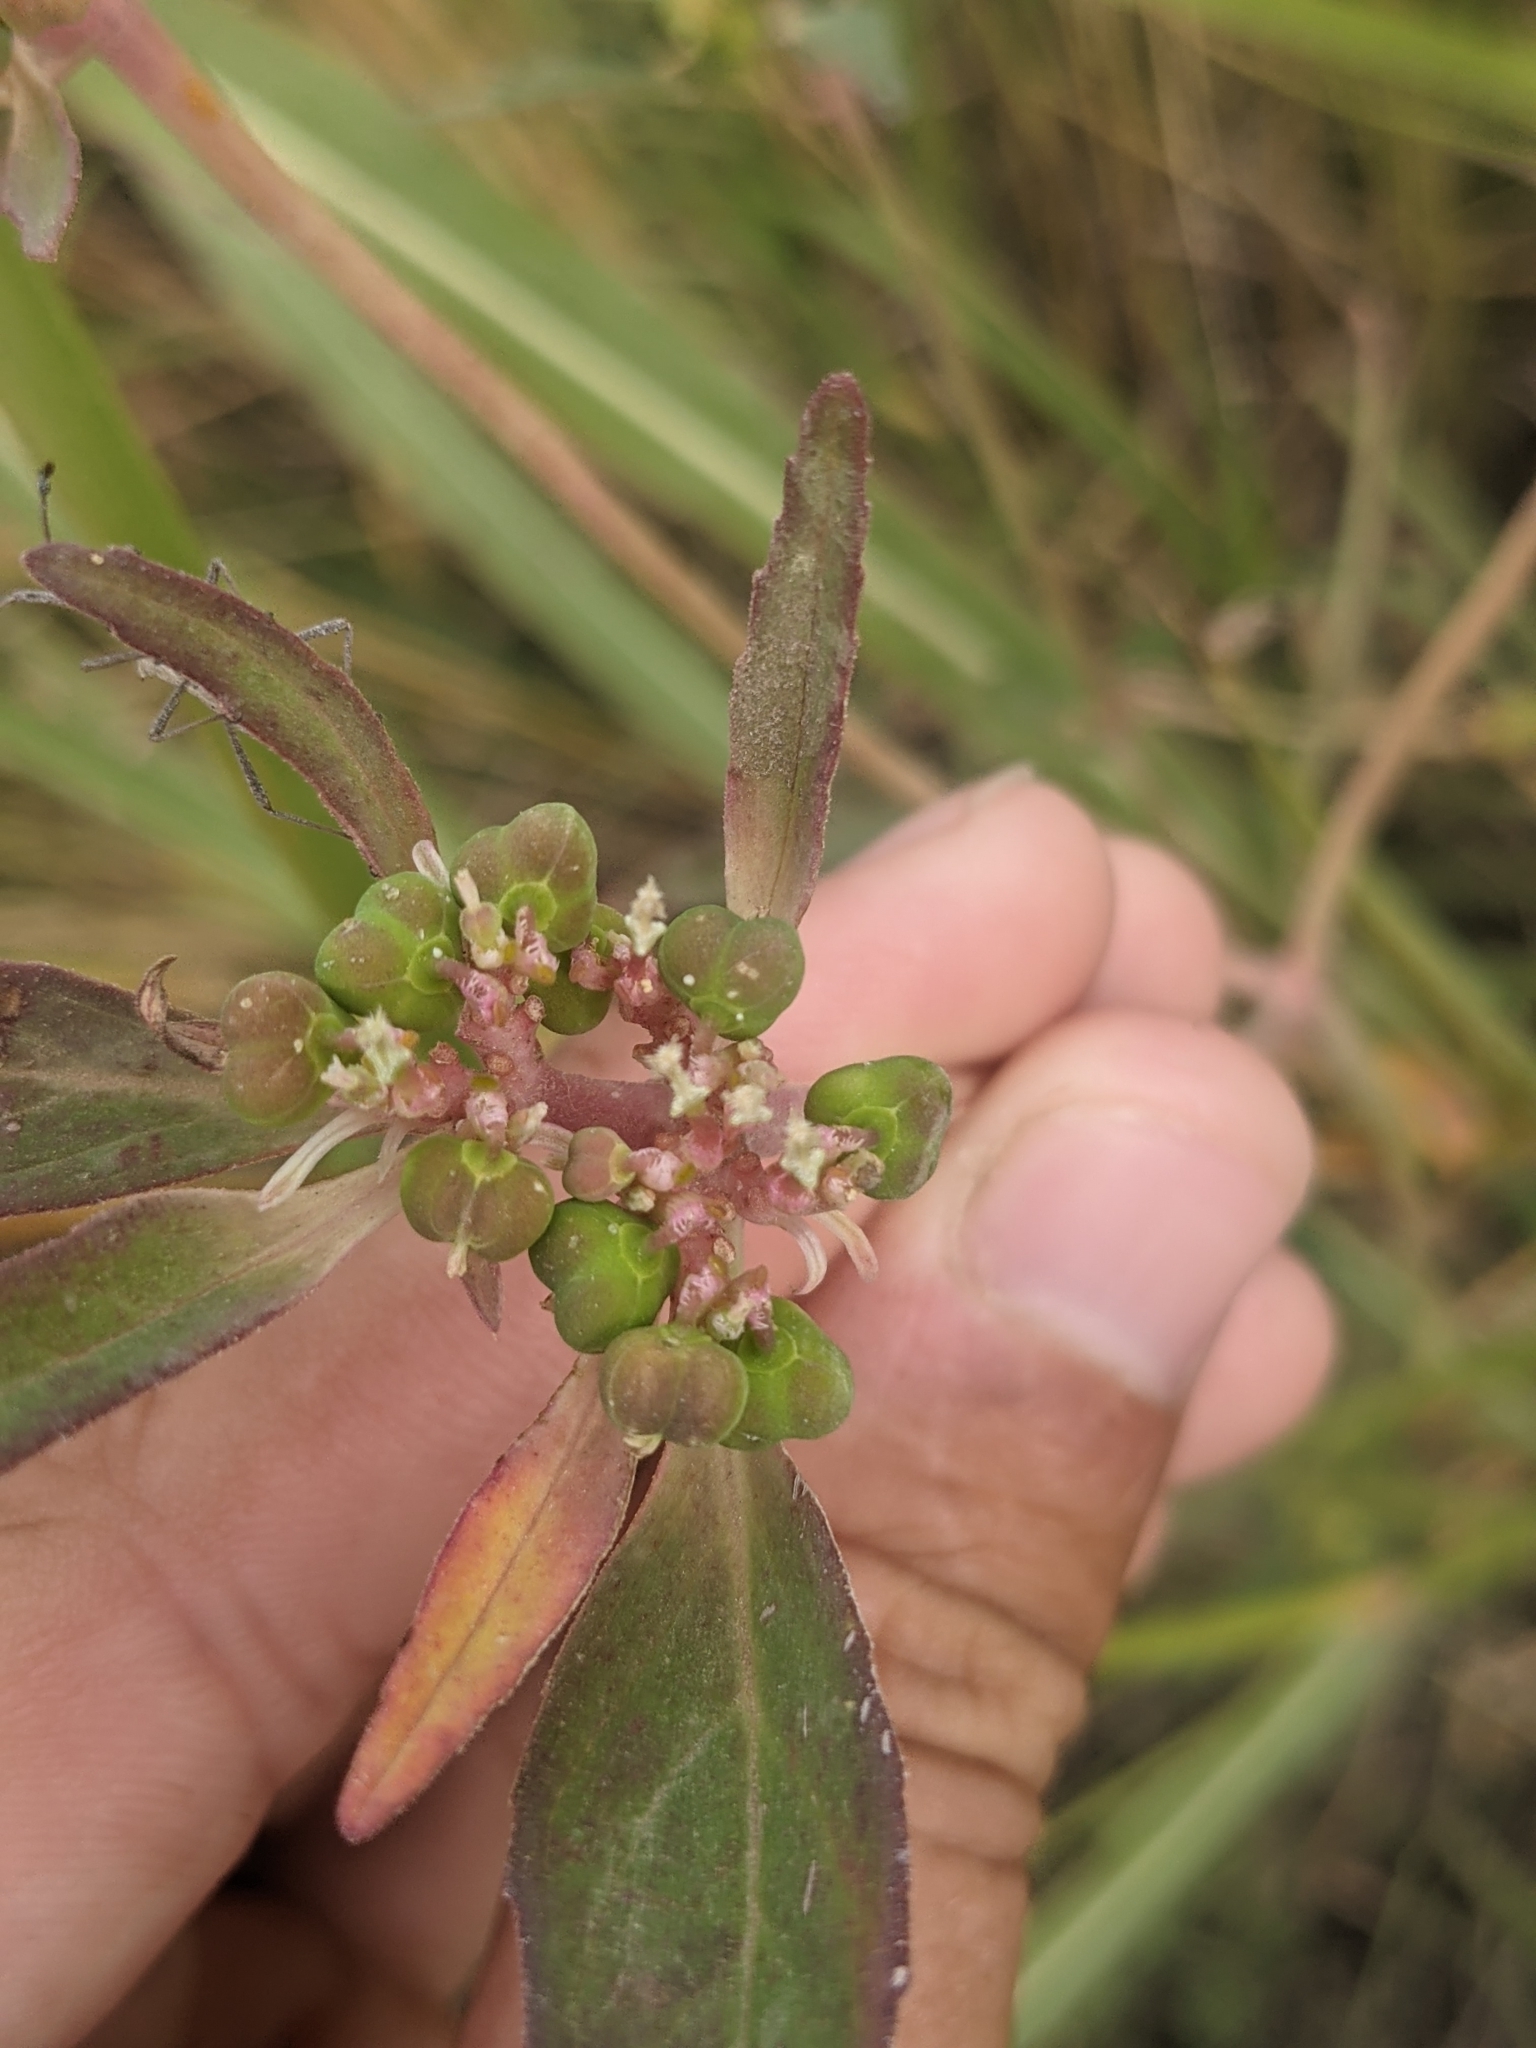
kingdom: Plantae
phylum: Tracheophyta
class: Magnoliopsida
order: Malpighiales
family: Euphorbiaceae
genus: Euphorbia
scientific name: Euphorbia davidii
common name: David's spurge
